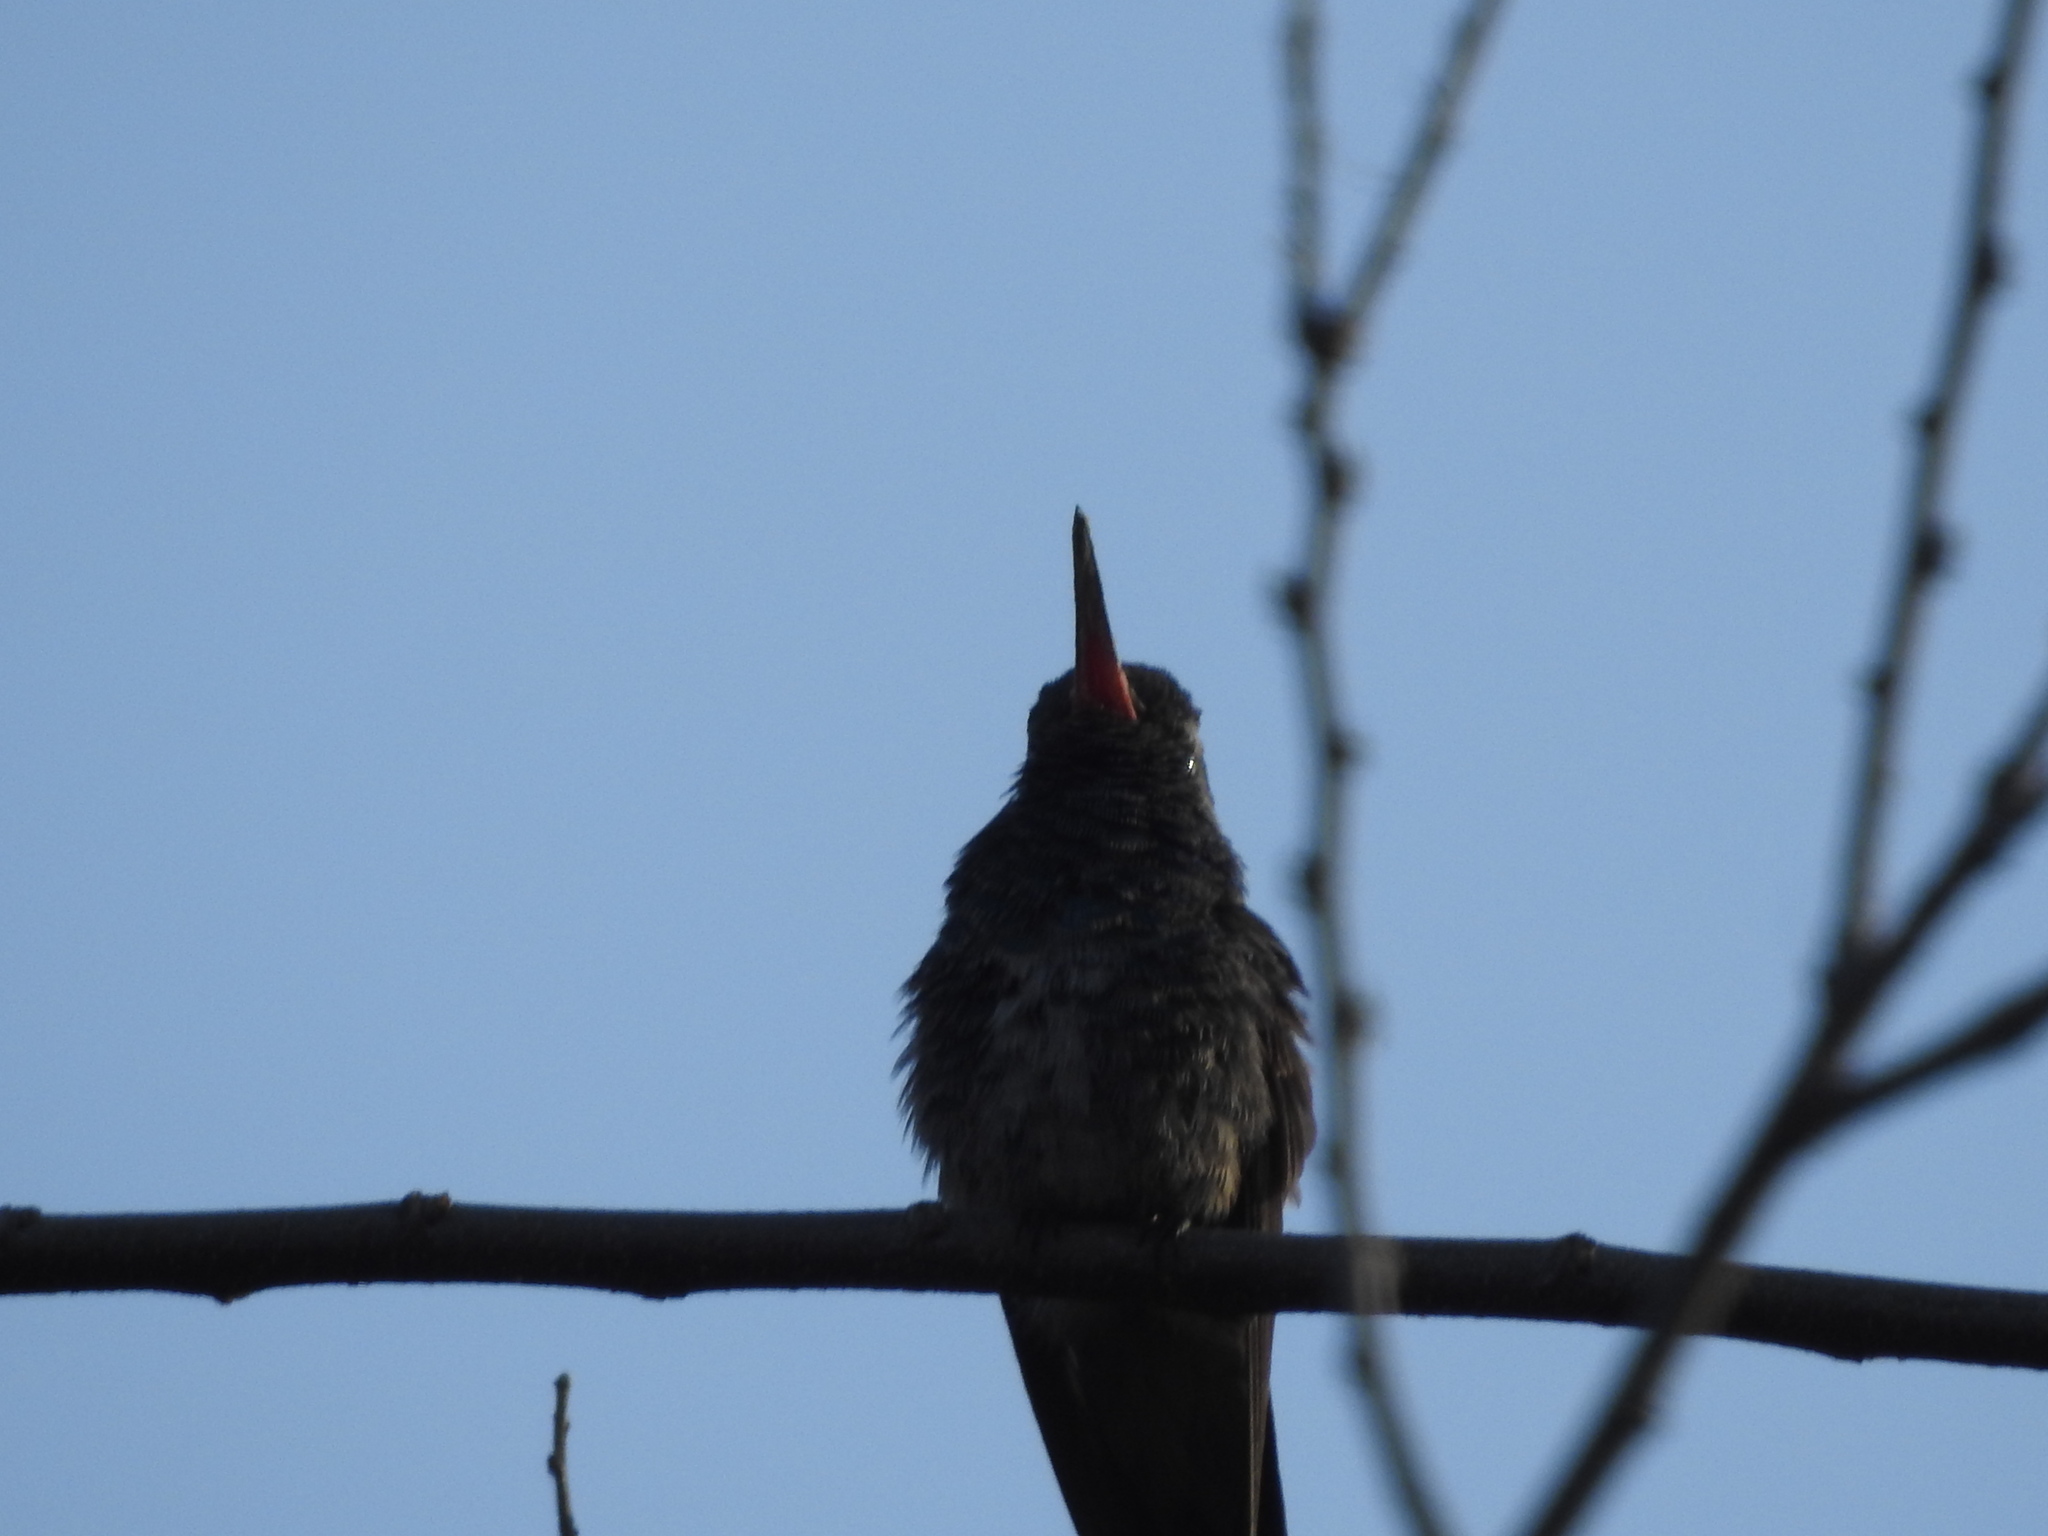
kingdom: Animalia
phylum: Chordata
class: Aves
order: Apodiformes
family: Trochilidae
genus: Cynanthus
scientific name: Cynanthus latirostris
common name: Broad-billed hummingbird
